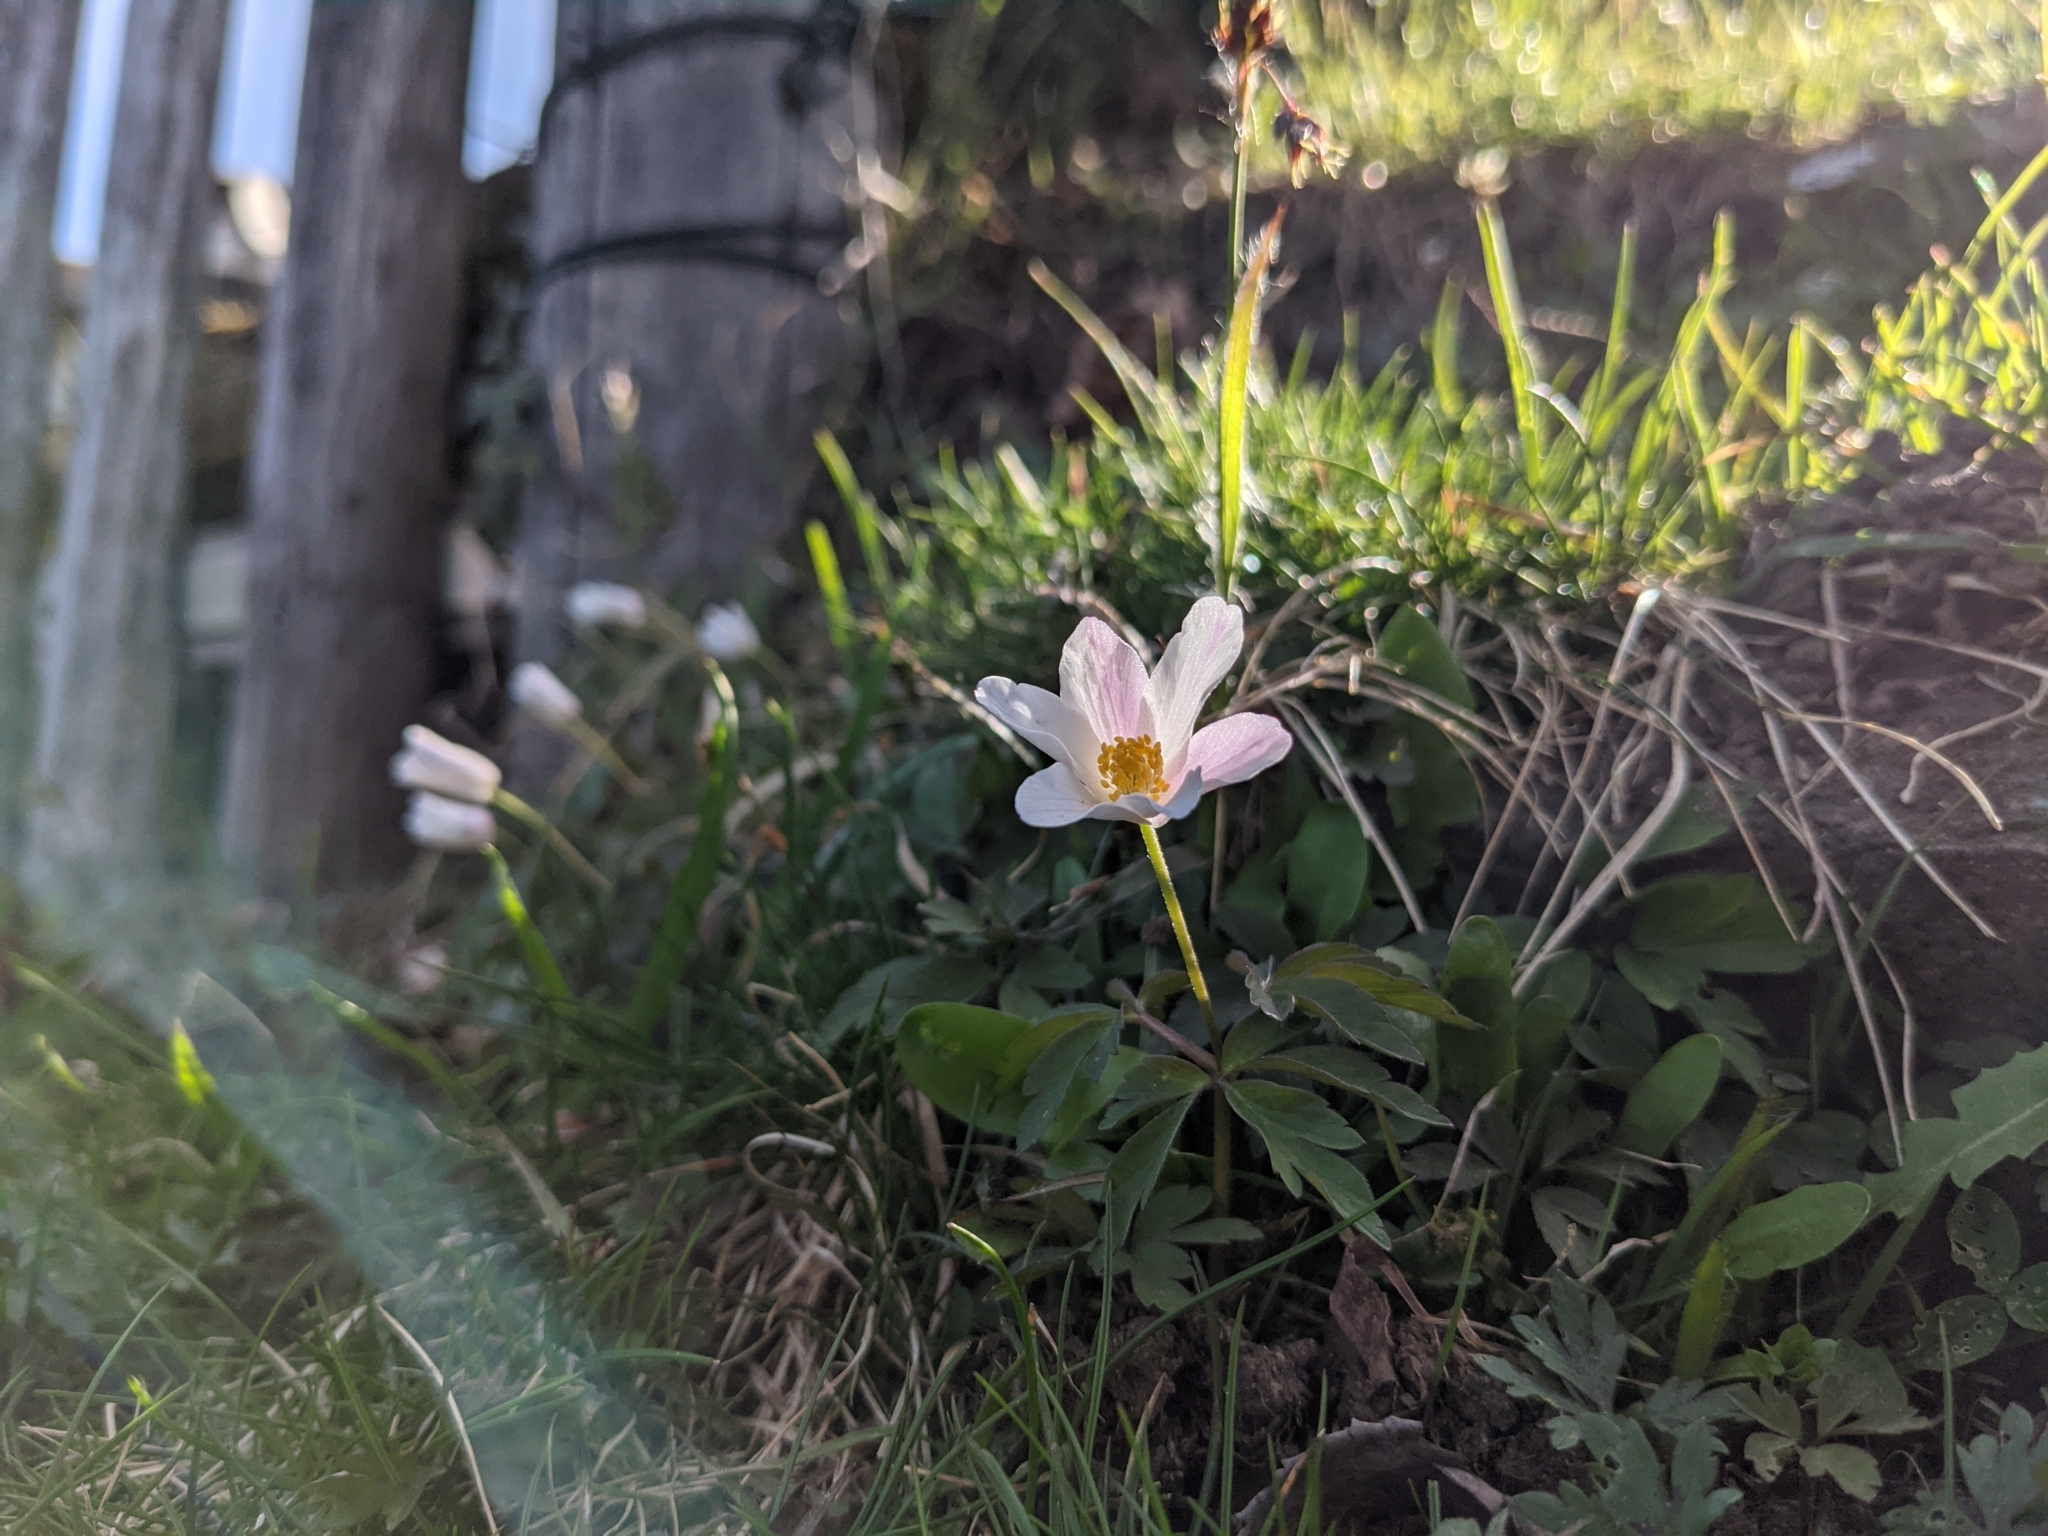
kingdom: Plantae
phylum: Tracheophyta
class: Magnoliopsida
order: Ranunculales
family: Ranunculaceae
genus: Anemone
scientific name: Anemone nemorosa
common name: Wood anemone
